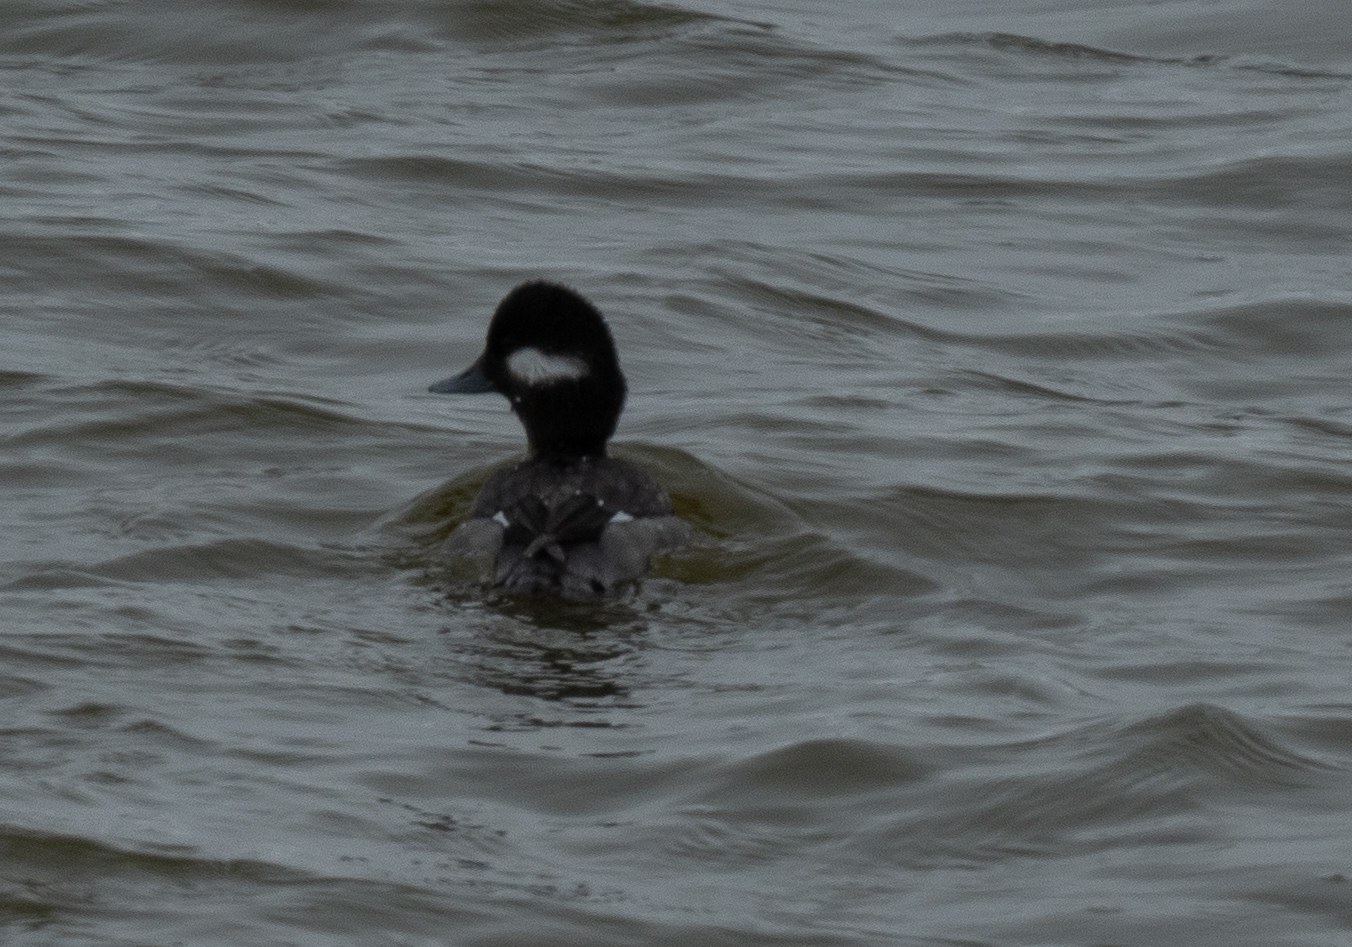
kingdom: Animalia
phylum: Chordata
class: Aves
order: Anseriformes
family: Anatidae
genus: Bucephala
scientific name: Bucephala albeola
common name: Bufflehead
